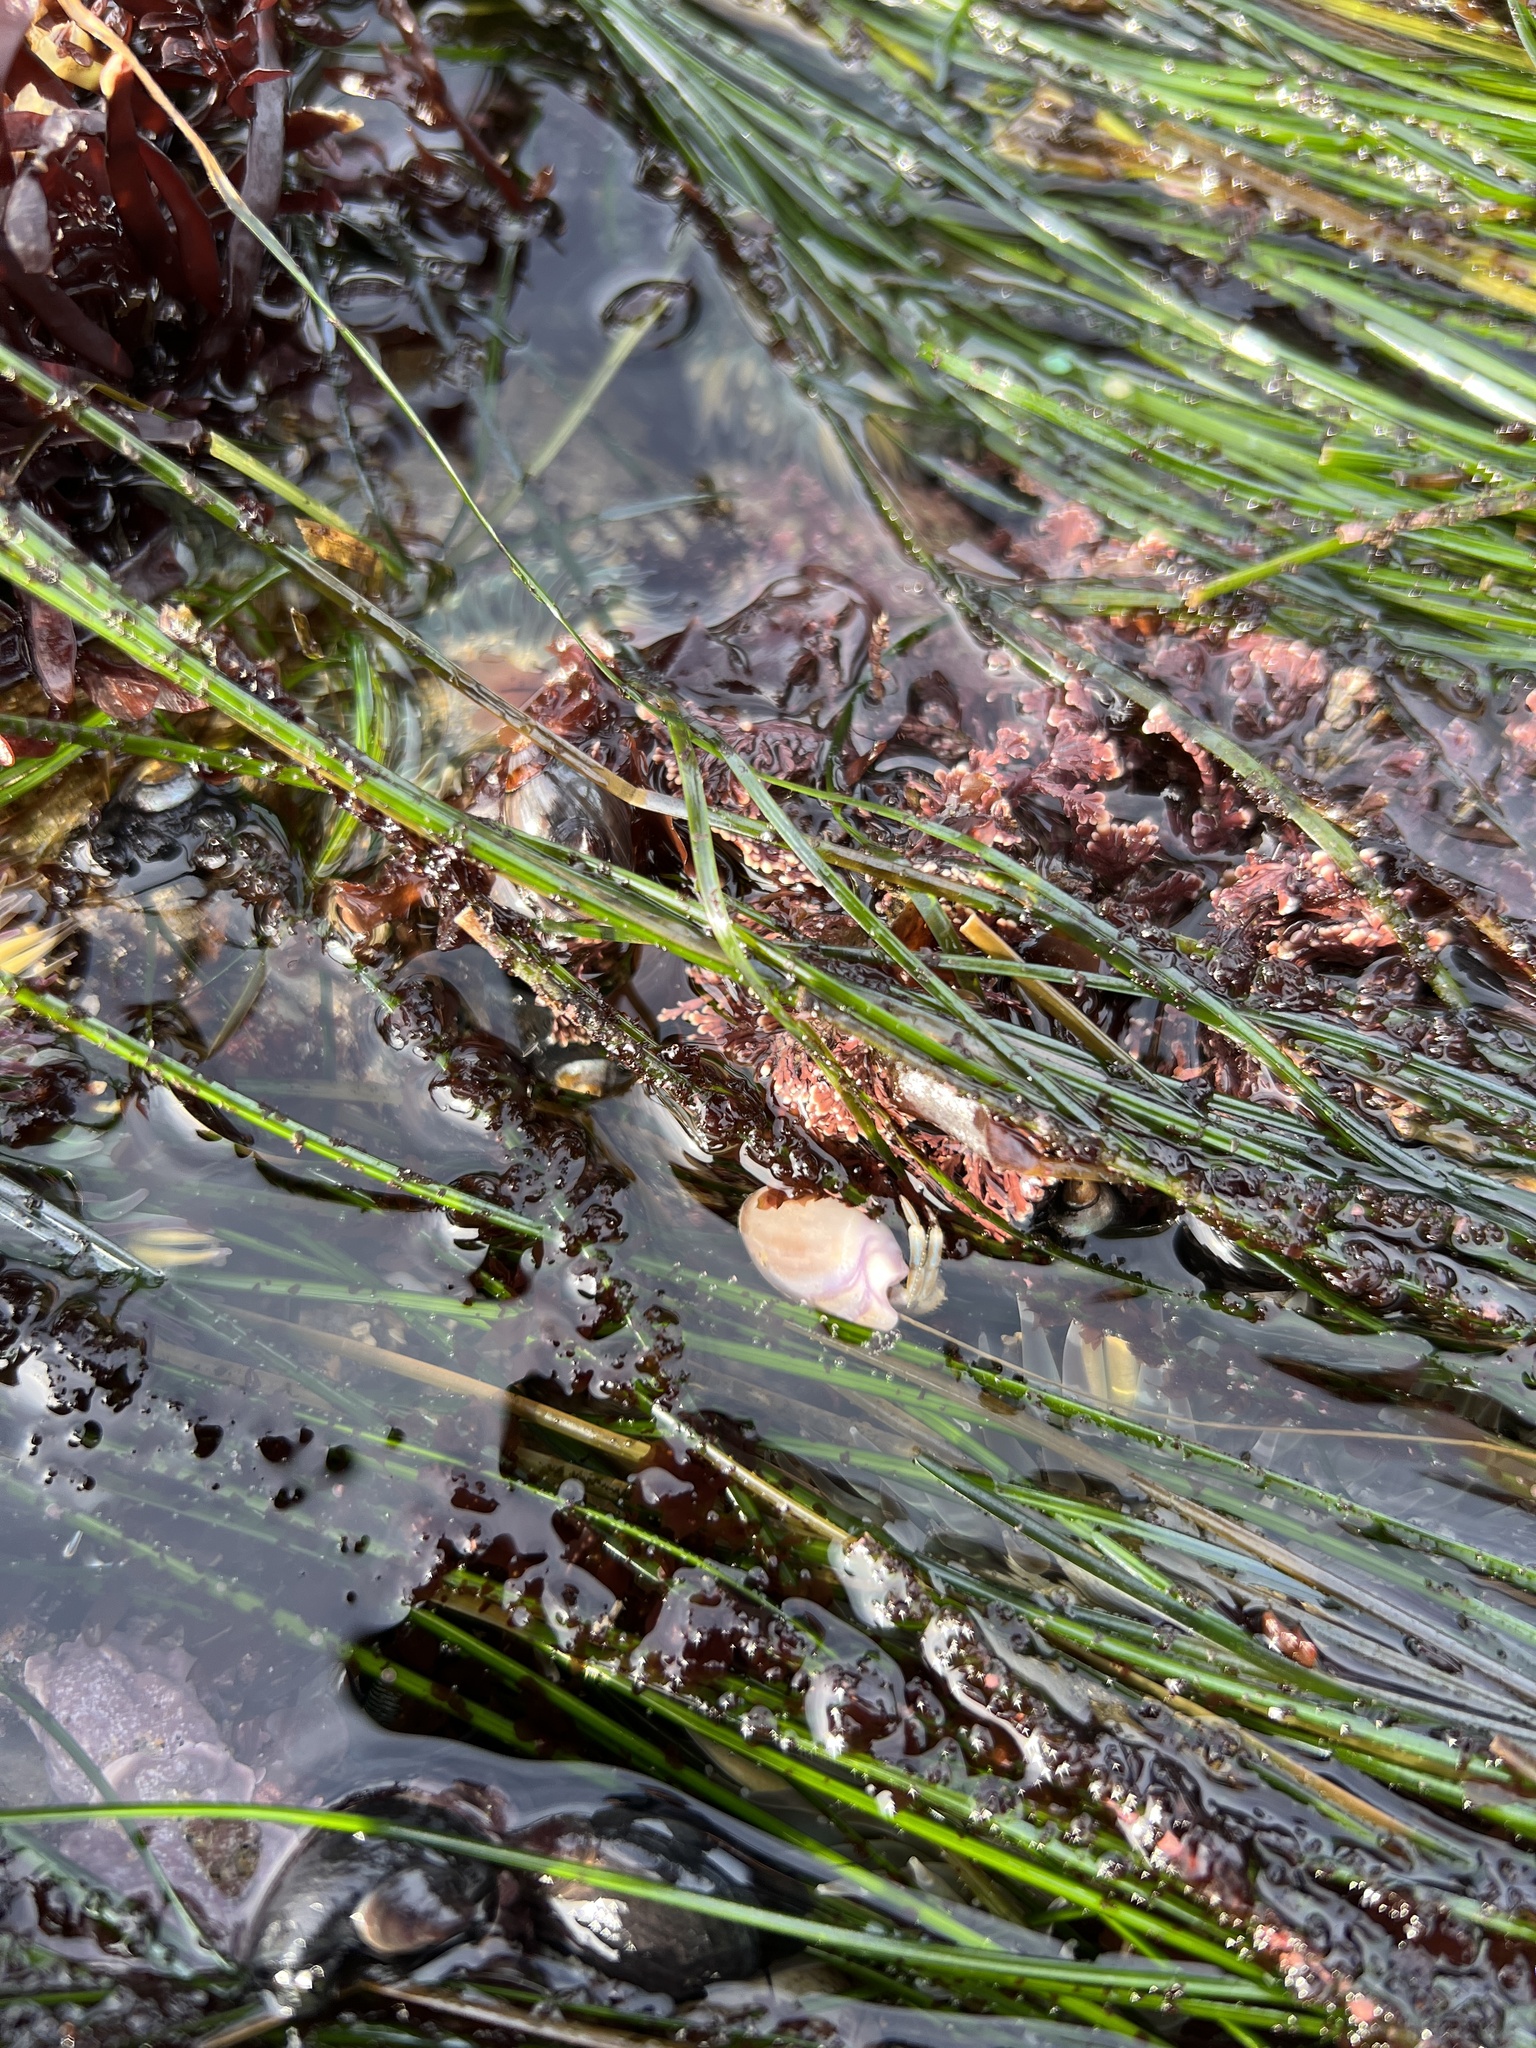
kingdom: Animalia
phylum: Arthropoda
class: Malacostraca
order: Decapoda
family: Paguridae
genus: Pagurus
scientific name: Pagurus venturensis
